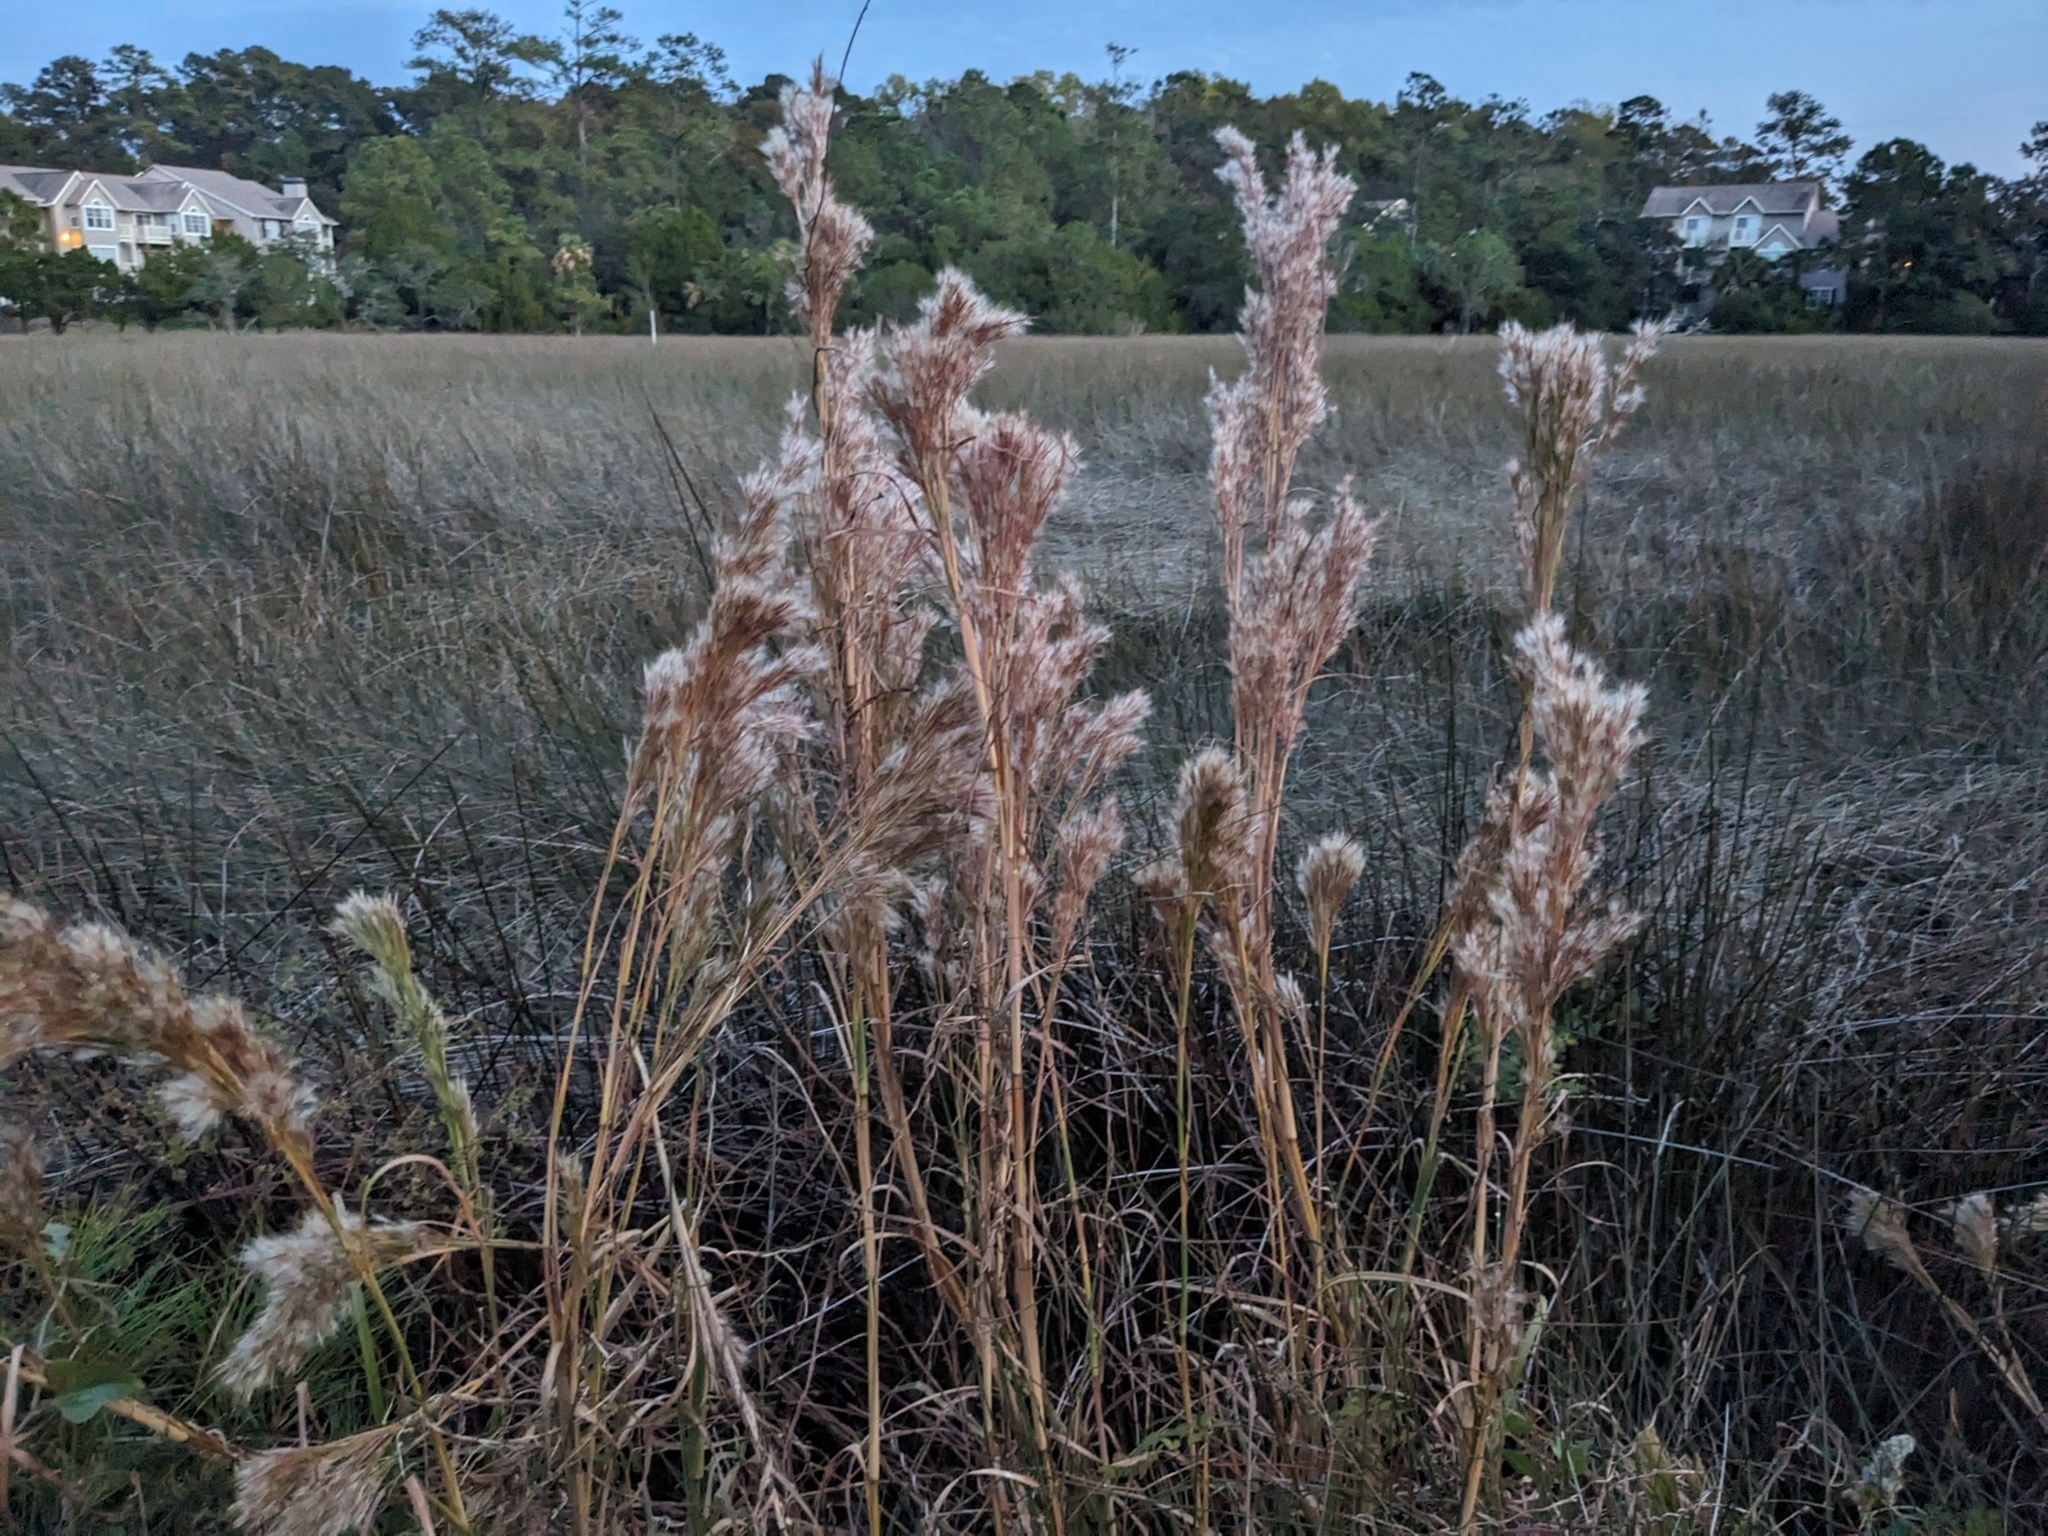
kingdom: Plantae
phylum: Tracheophyta
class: Liliopsida
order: Poales
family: Poaceae
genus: Andropogon
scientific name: Andropogon tenuispatheus
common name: Bushy bluestem
